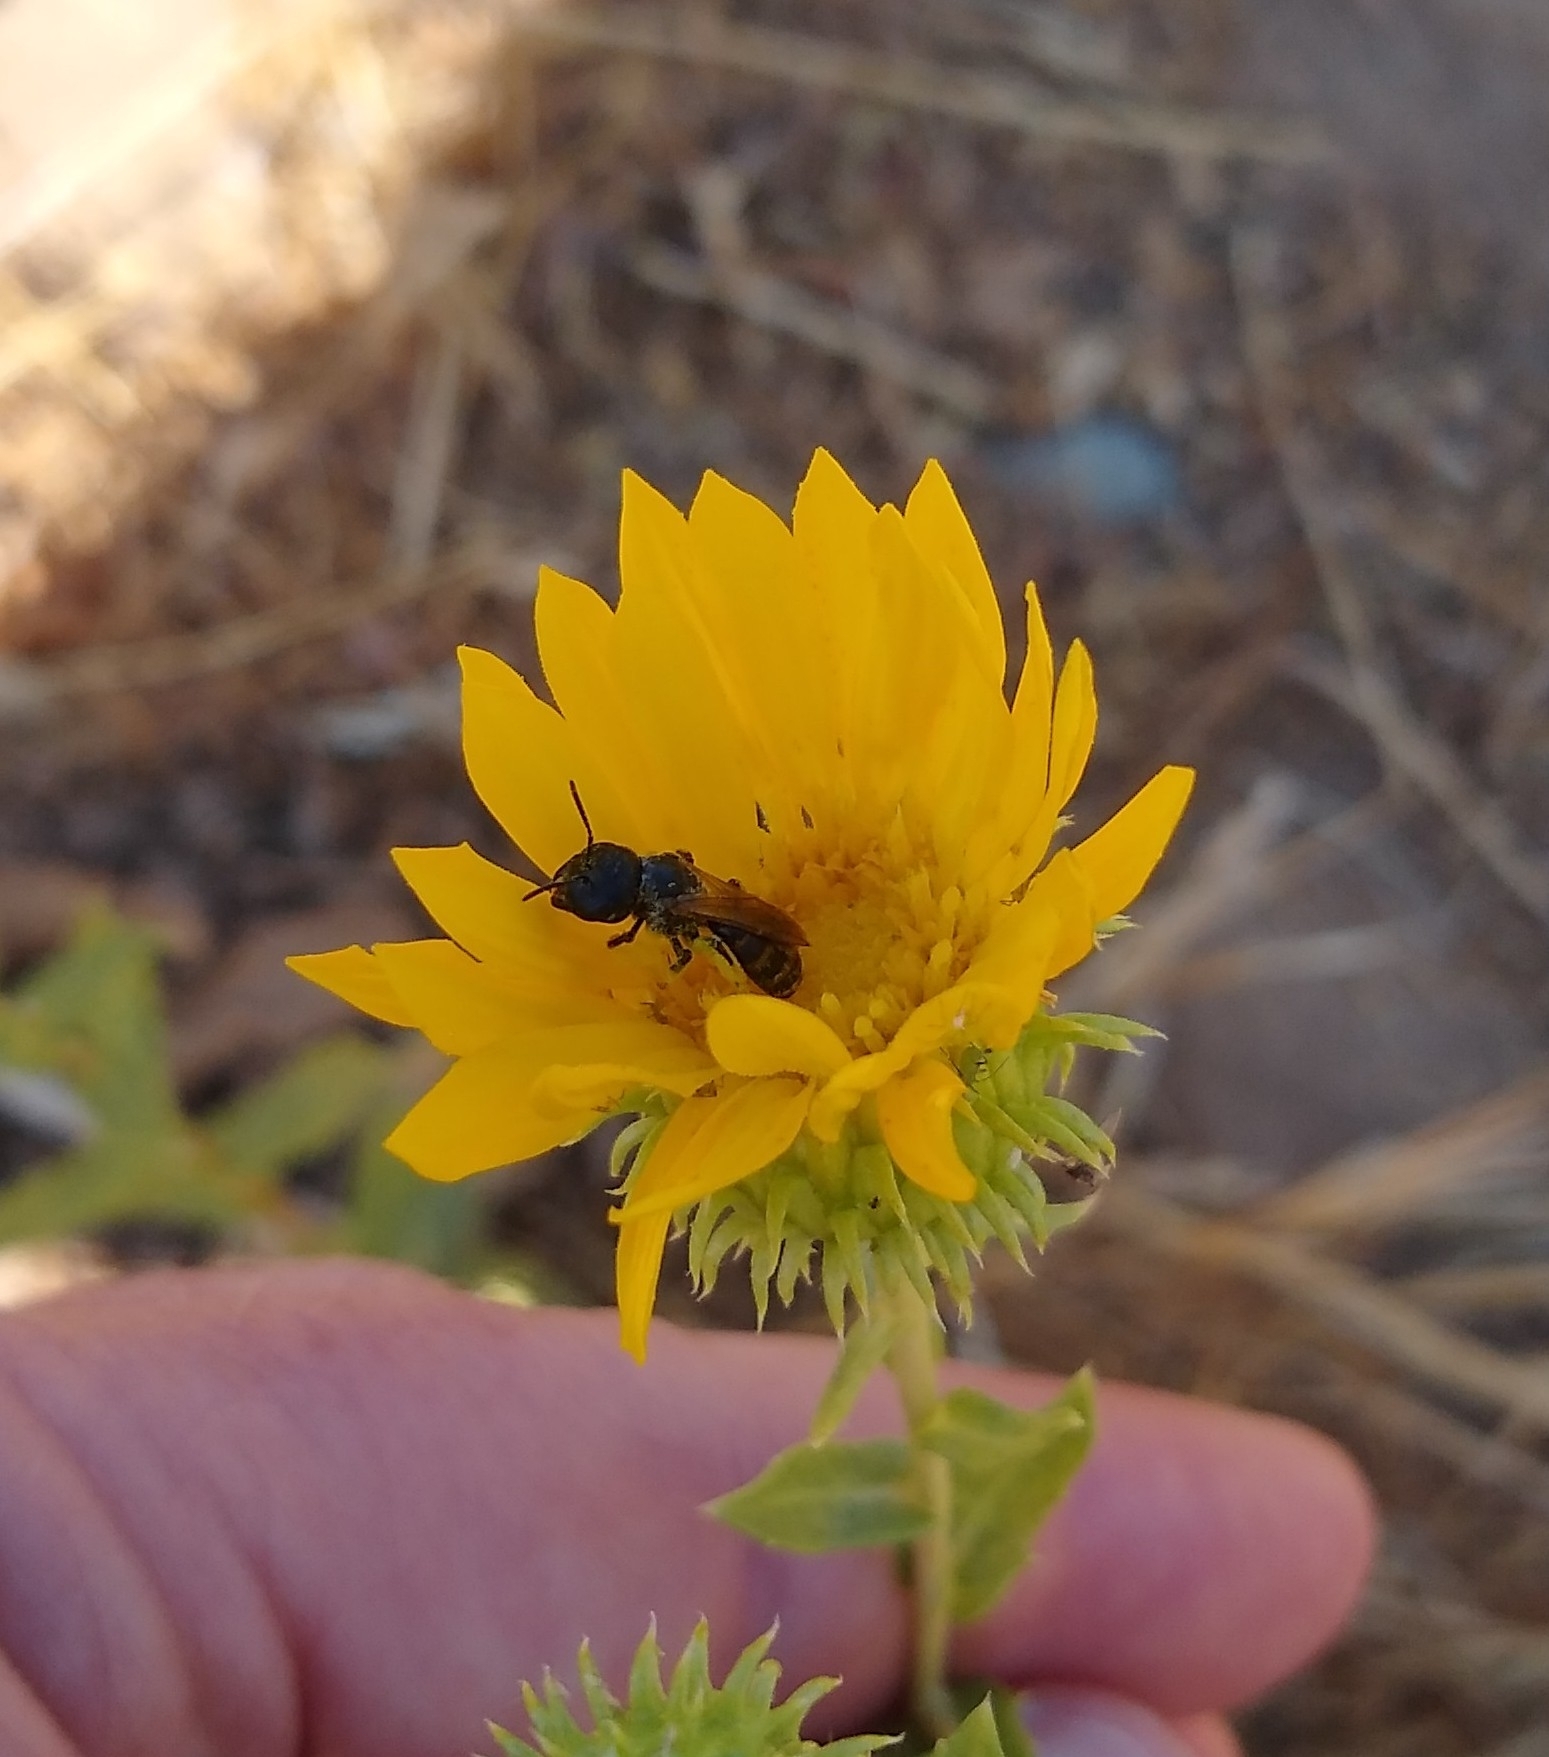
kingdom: Animalia
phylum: Arthropoda
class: Insecta
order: Hymenoptera
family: Halictidae
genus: Halictus
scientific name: Halictus ligatus
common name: Ligated furrow bee
